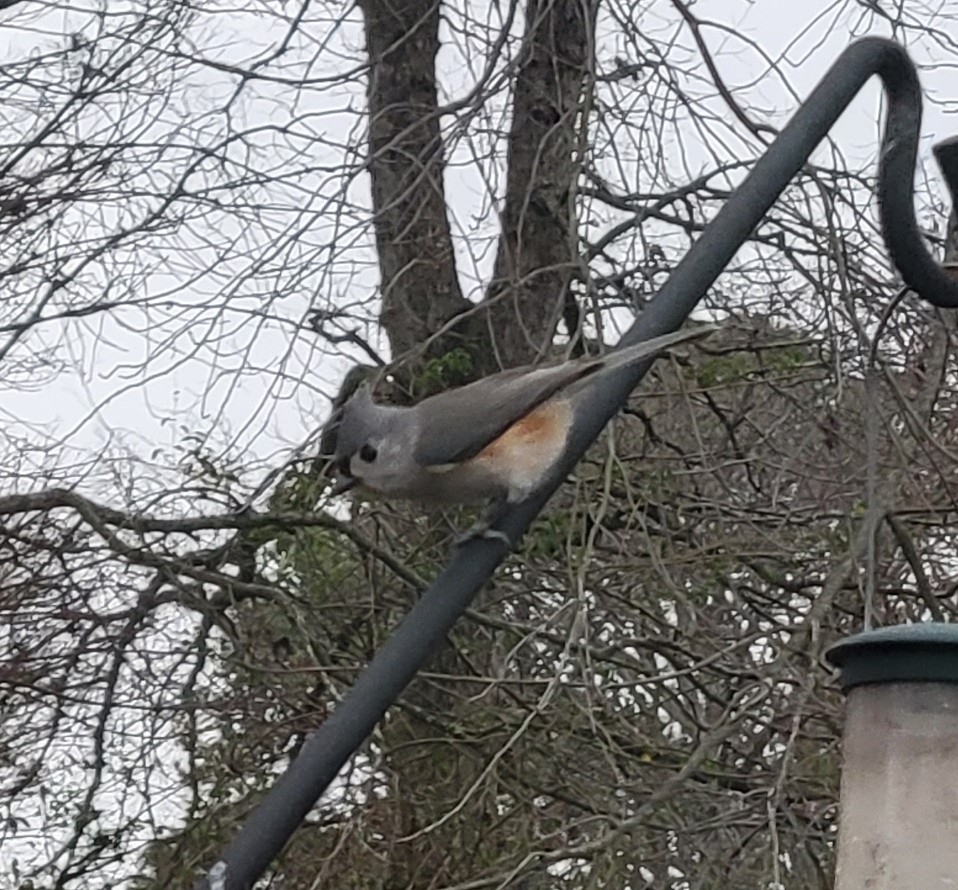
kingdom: Animalia
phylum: Chordata
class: Aves
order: Passeriformes
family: Paridae
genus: Baeolophus
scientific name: Baeolophus bicolor
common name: Tufted titmouse
